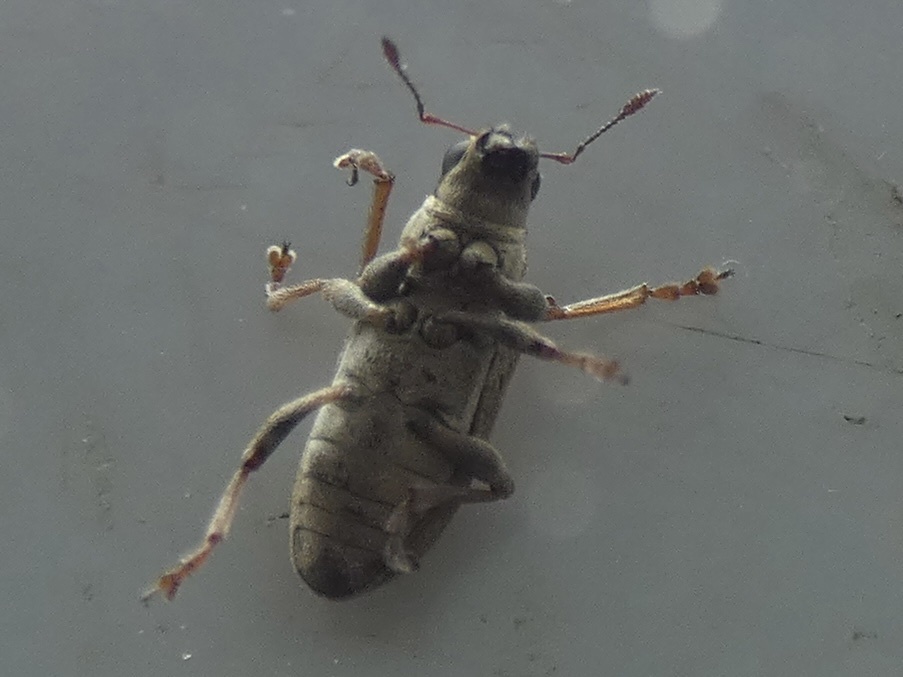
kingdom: Animalia
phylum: Arthropoda
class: Insecta
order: Coleoptera
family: Curculionidae
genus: Sitona
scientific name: Sitona lineatus
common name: Weevil
